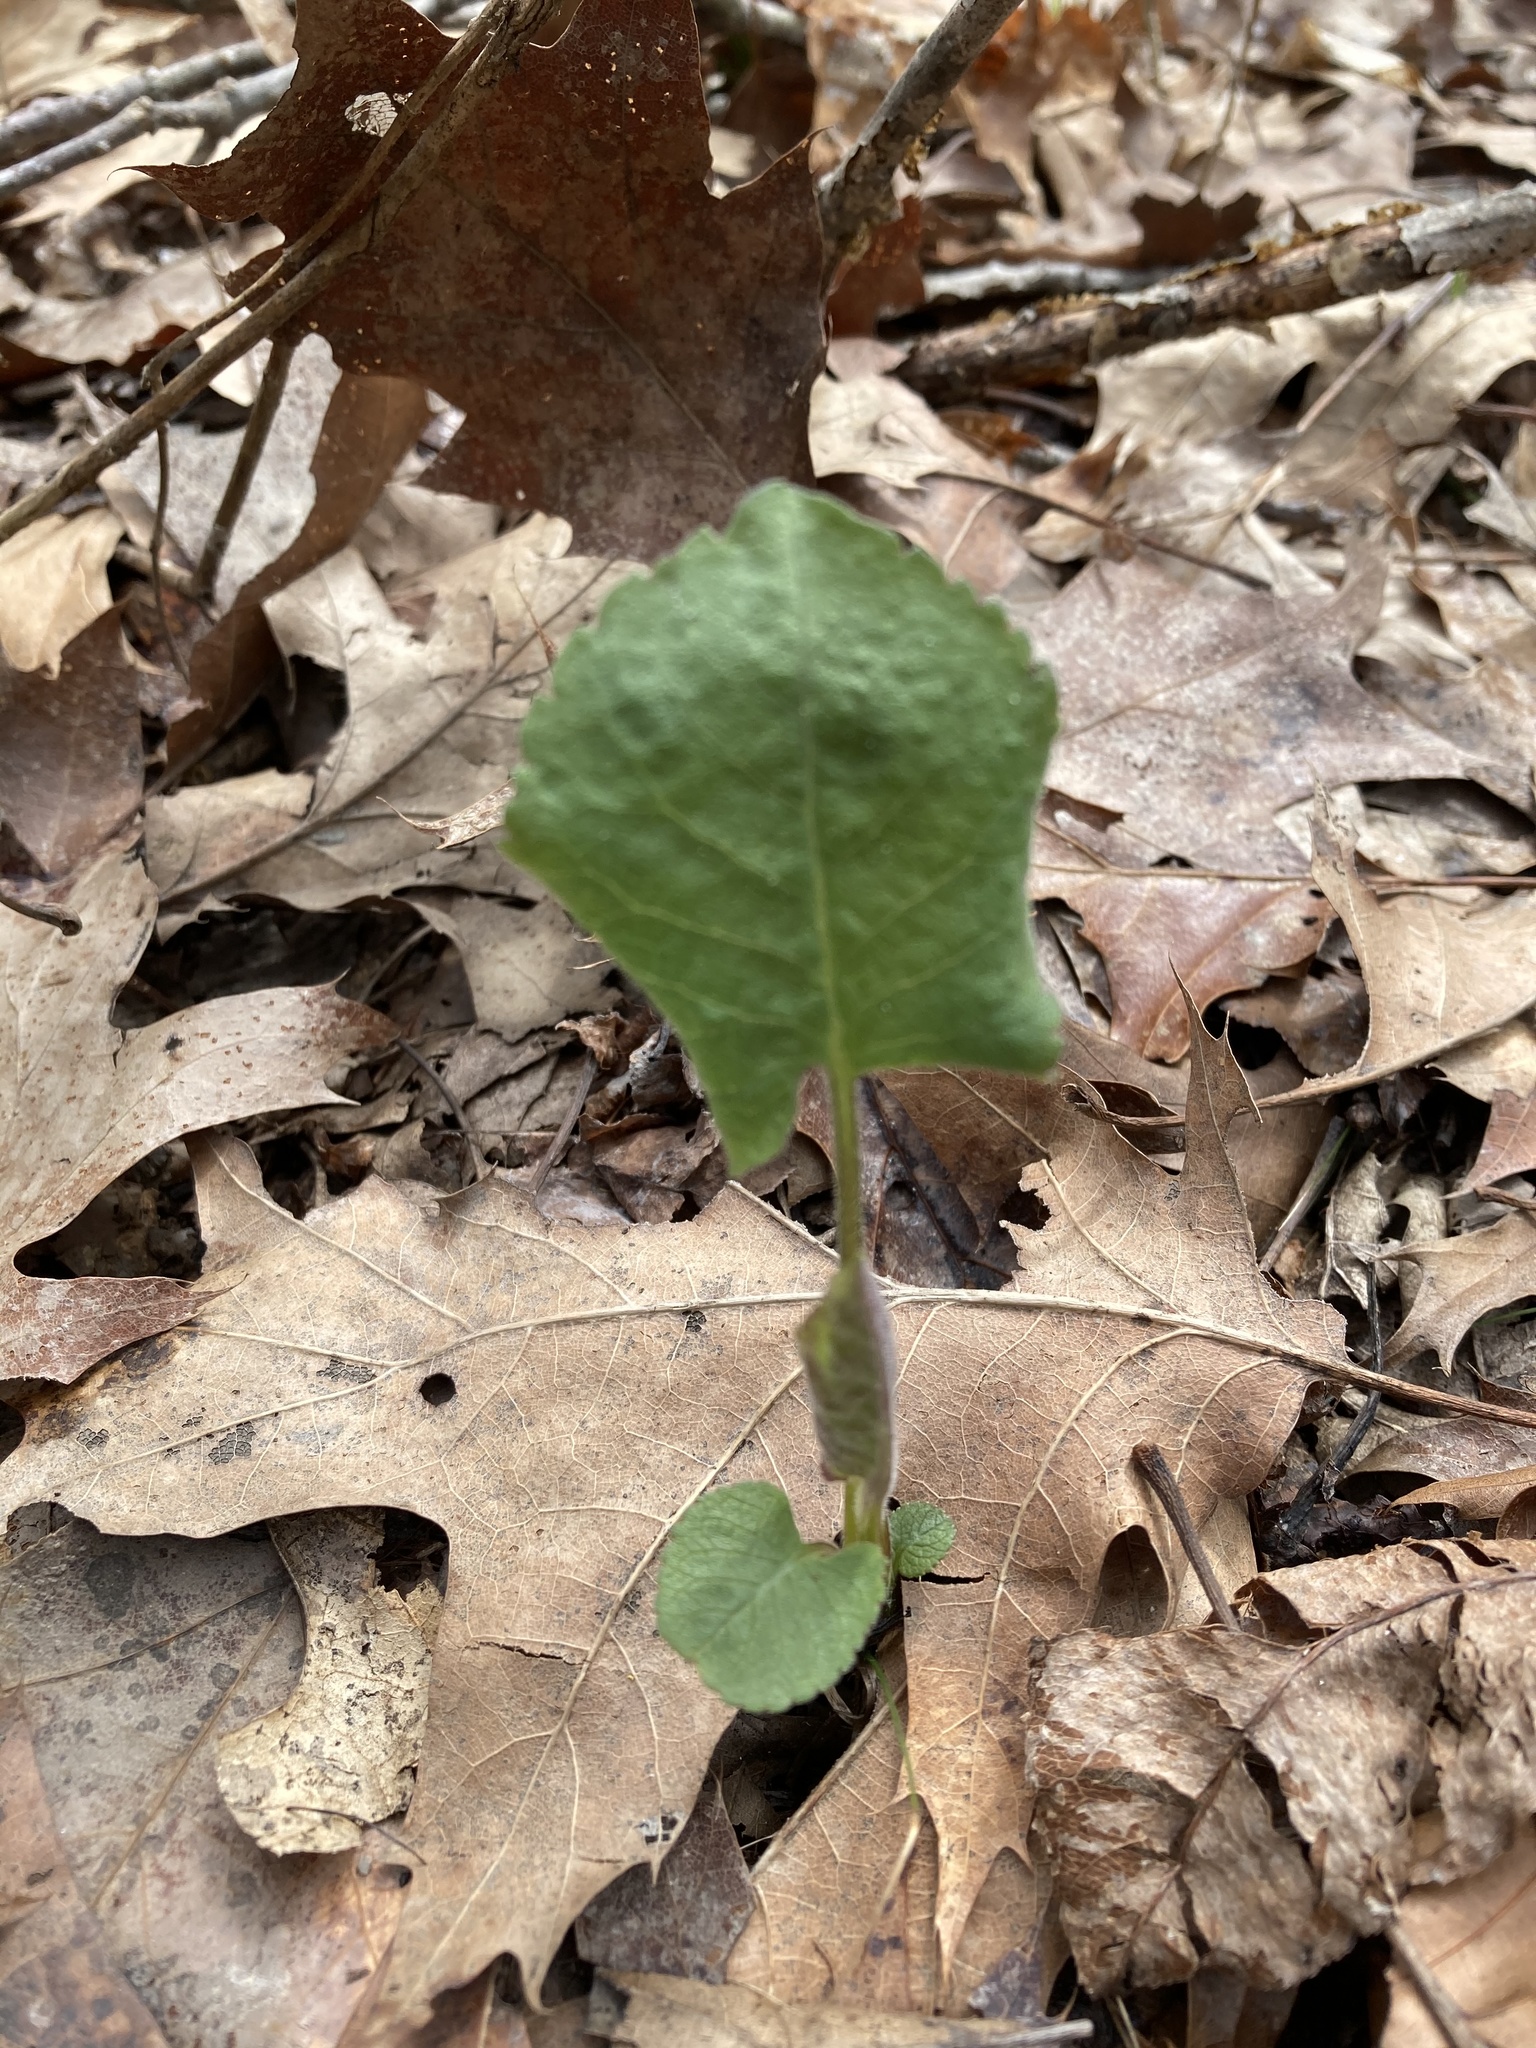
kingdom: Plantae
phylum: Tracheophyta
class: Magnoliopsida
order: Asterales
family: Asteraceae
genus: Eurybia
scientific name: Eurybia macrophylla
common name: Big-leaved aster
